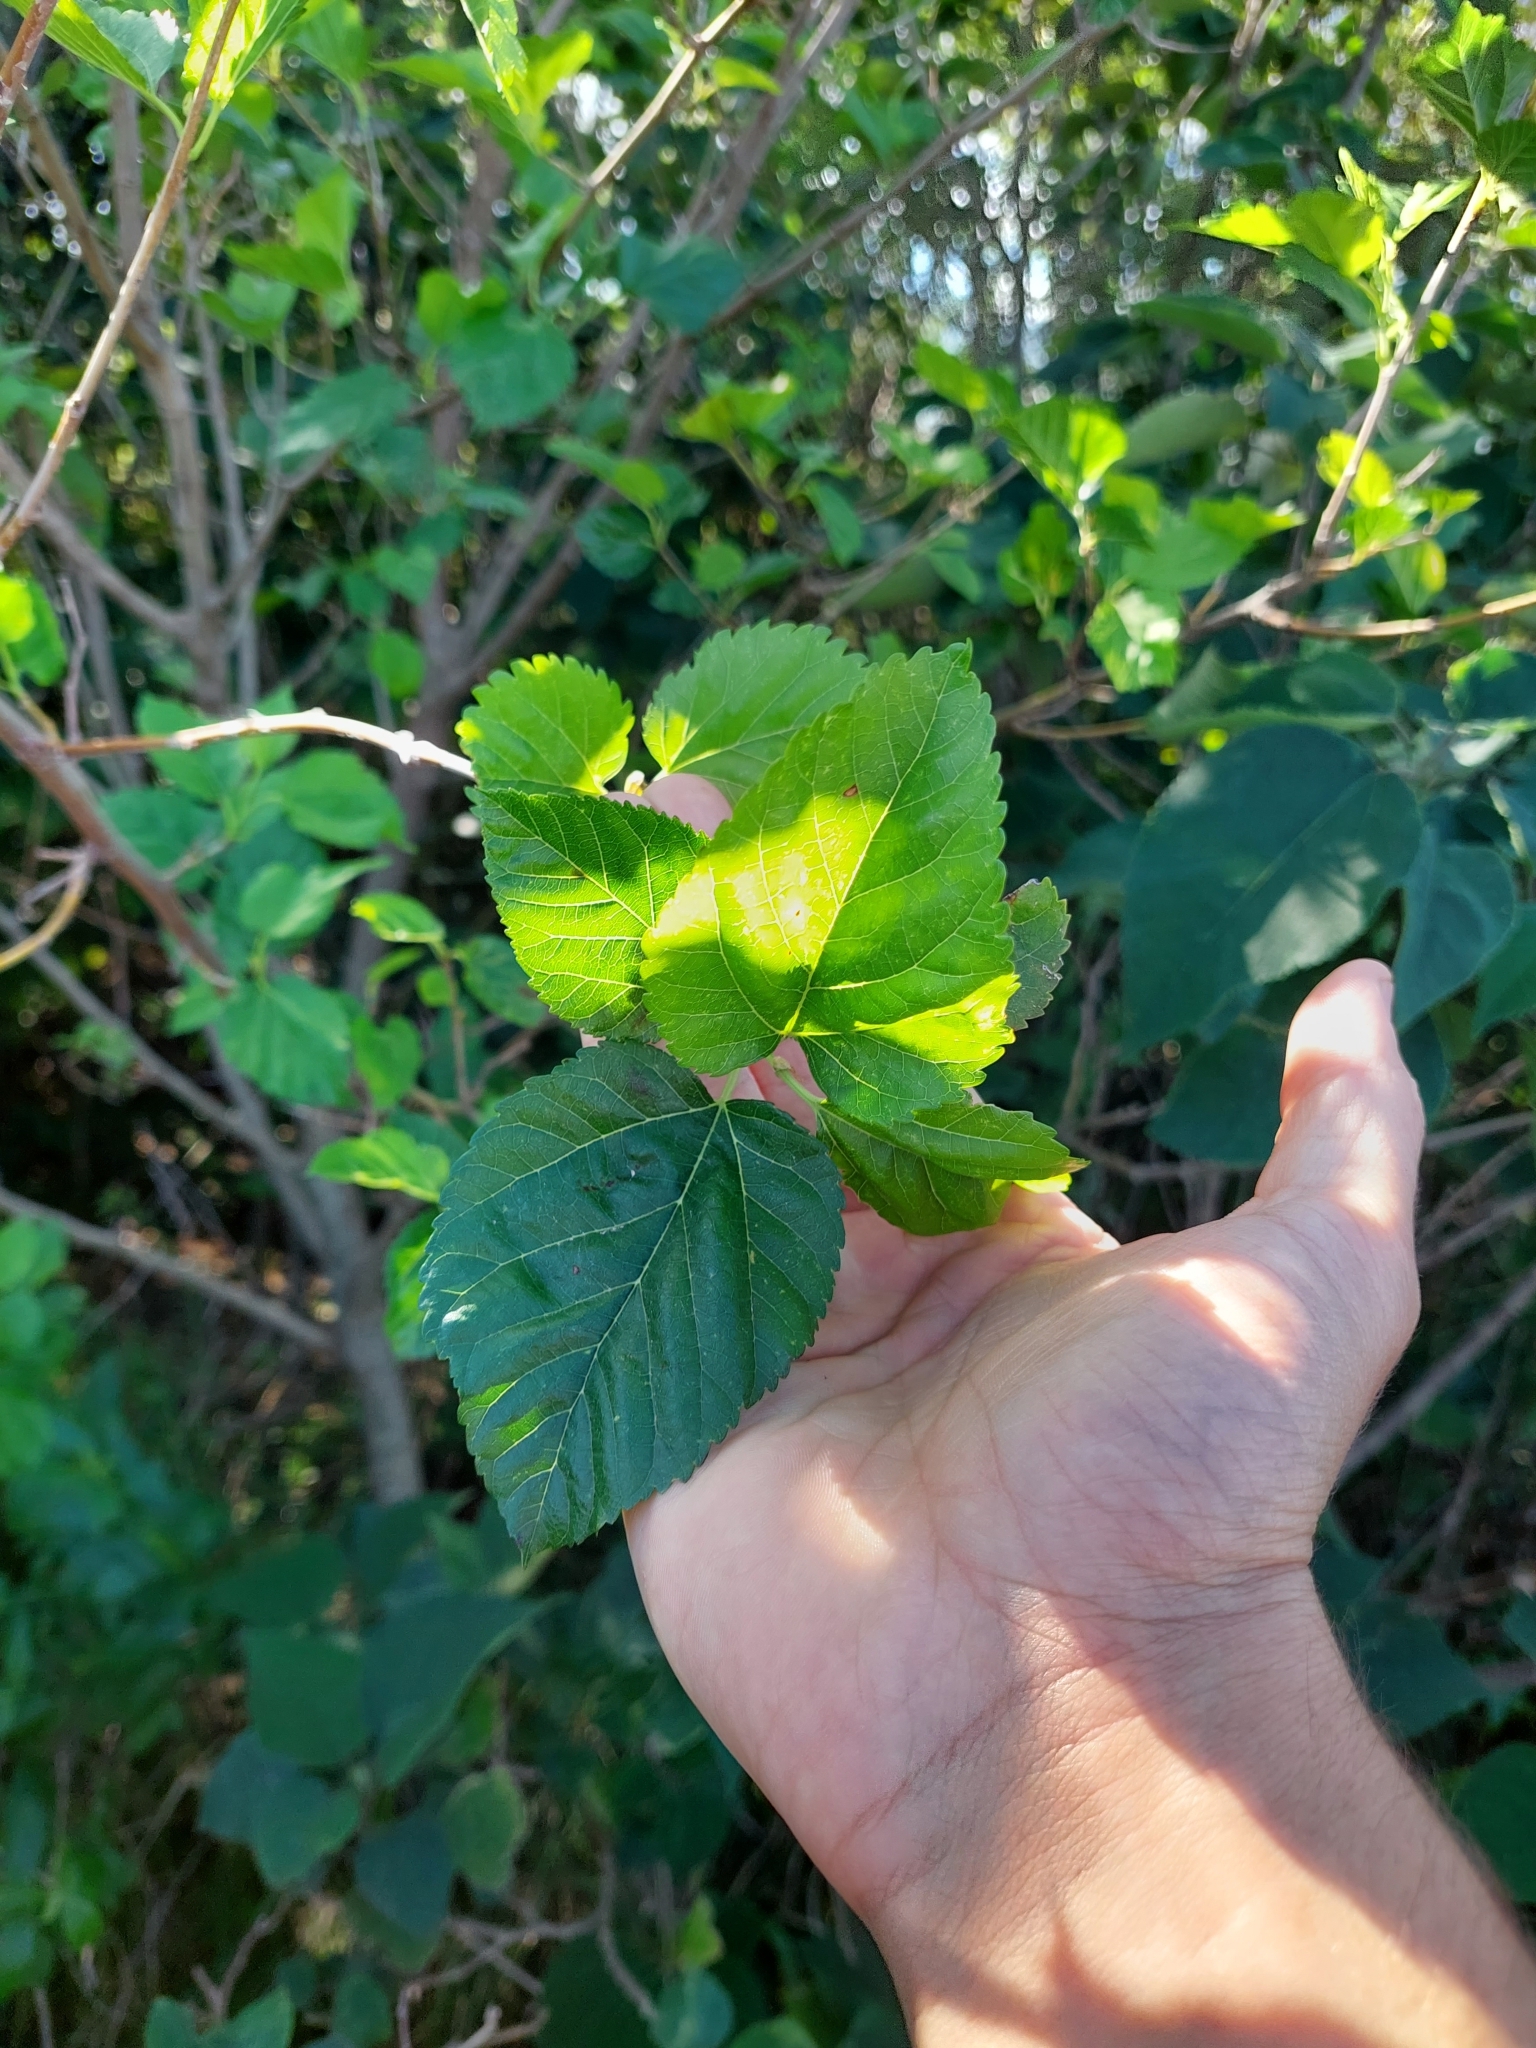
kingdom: Plantae
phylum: Tracheophyta
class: Magnoliopsida
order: Rosales
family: Moraceae
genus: Morus
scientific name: Morus alba
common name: White mulberry
